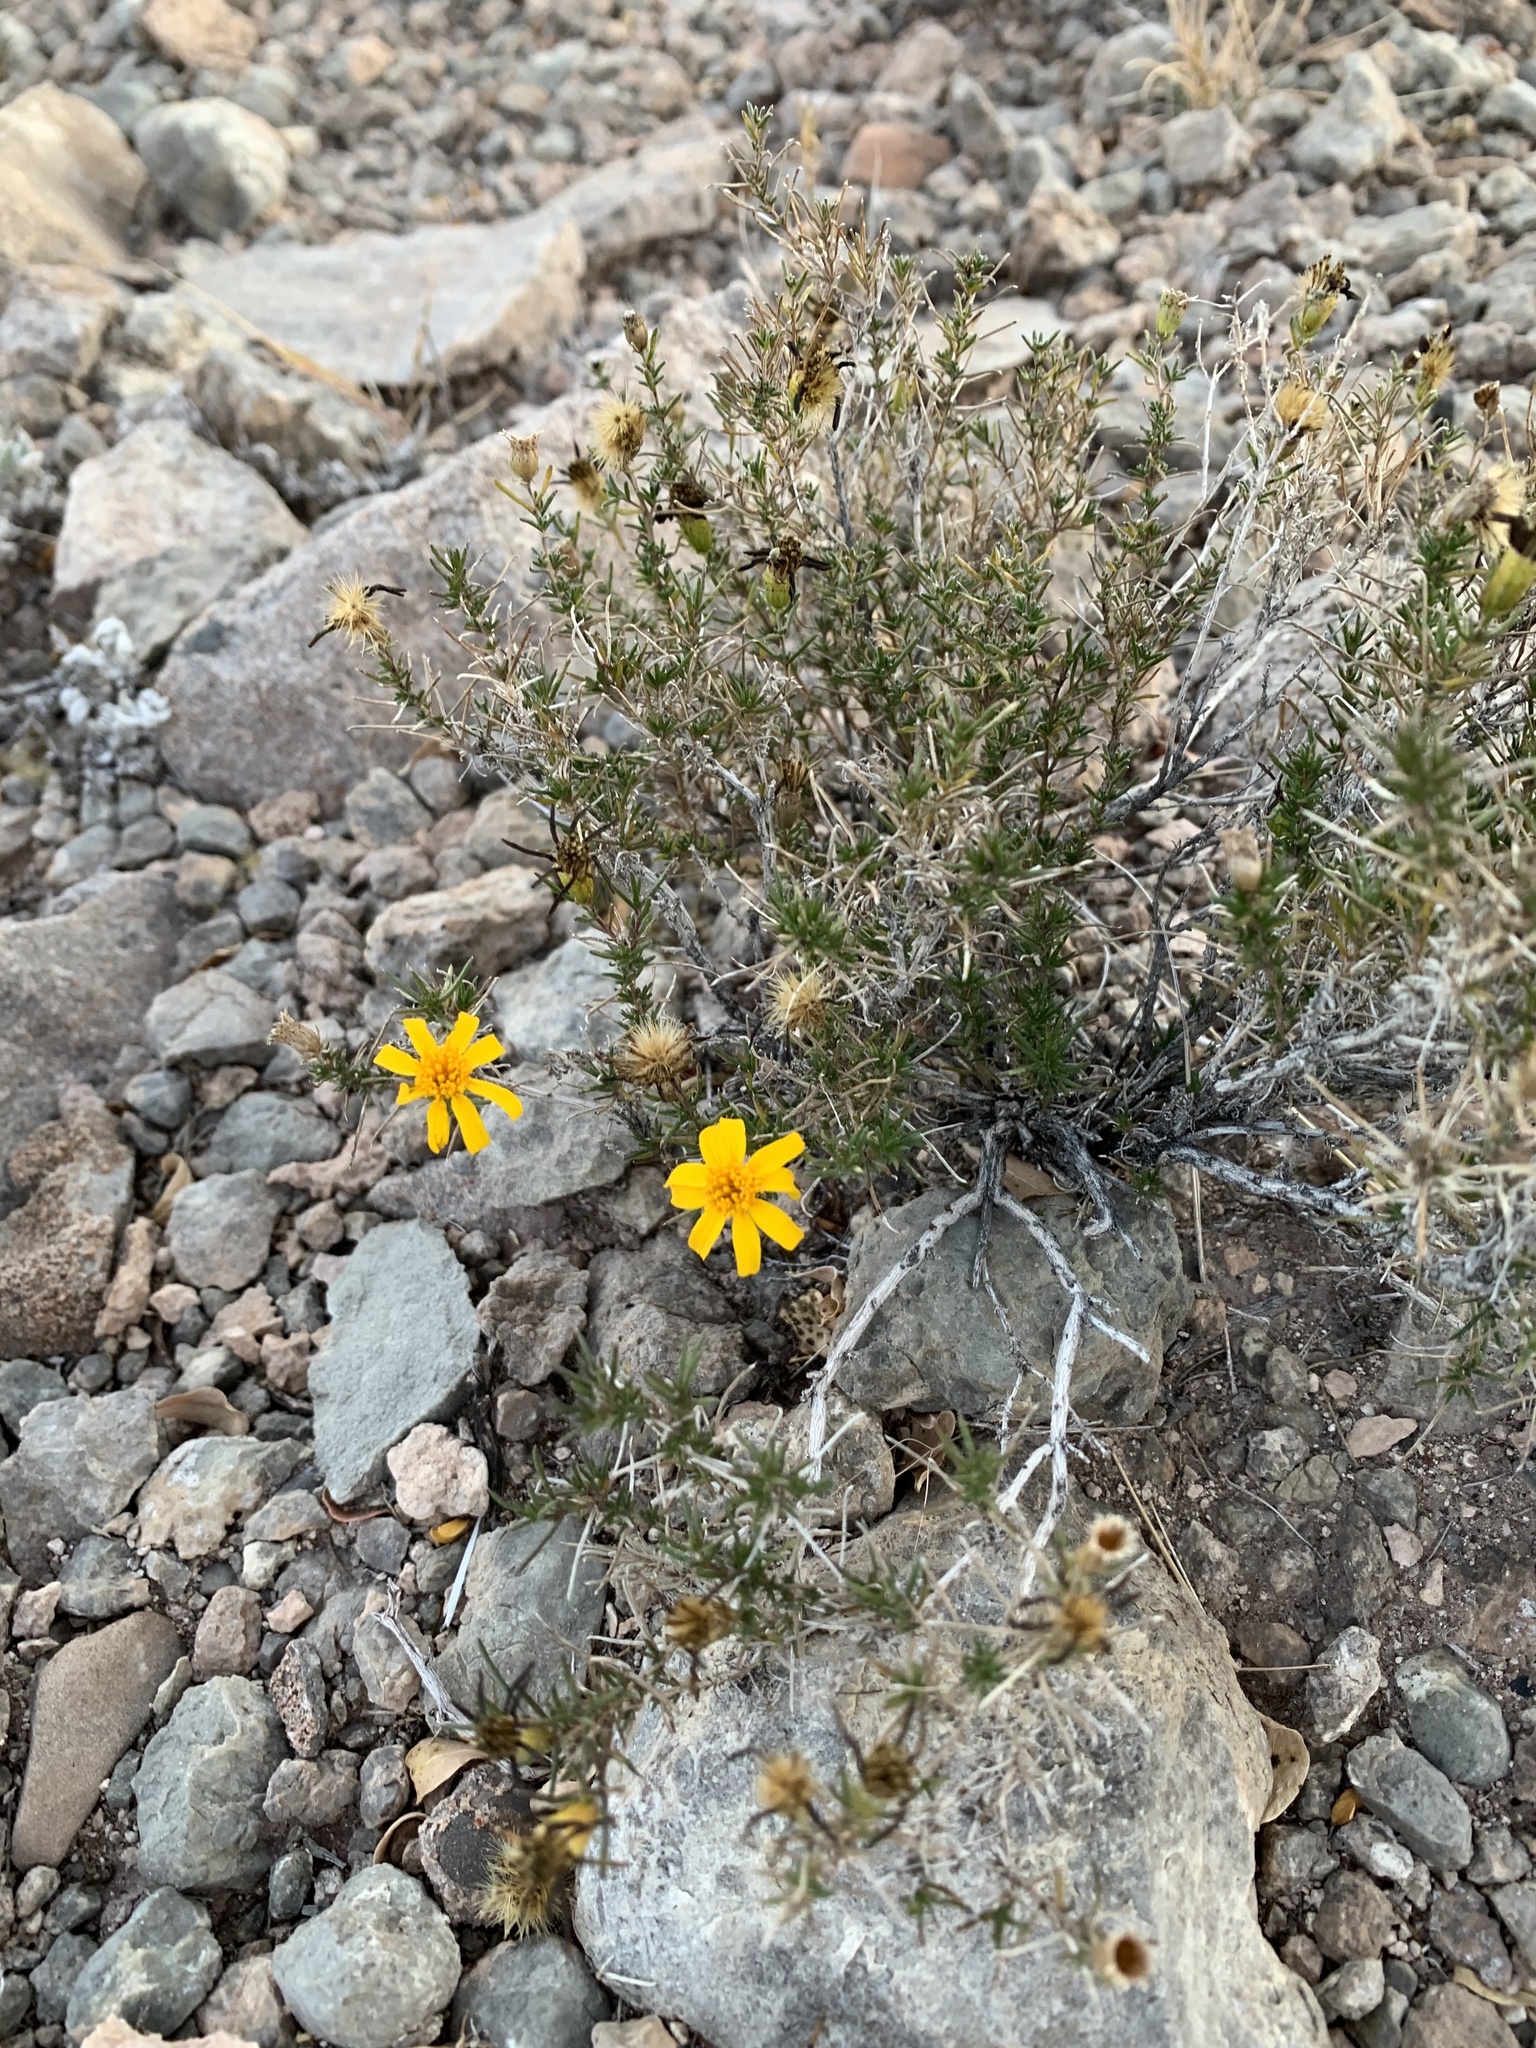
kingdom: Plantae
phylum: Tracheophyta
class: Magnoliopsida
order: Asterales
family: Asteraceae
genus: Thymophylla
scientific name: Thymophylla acerosa
